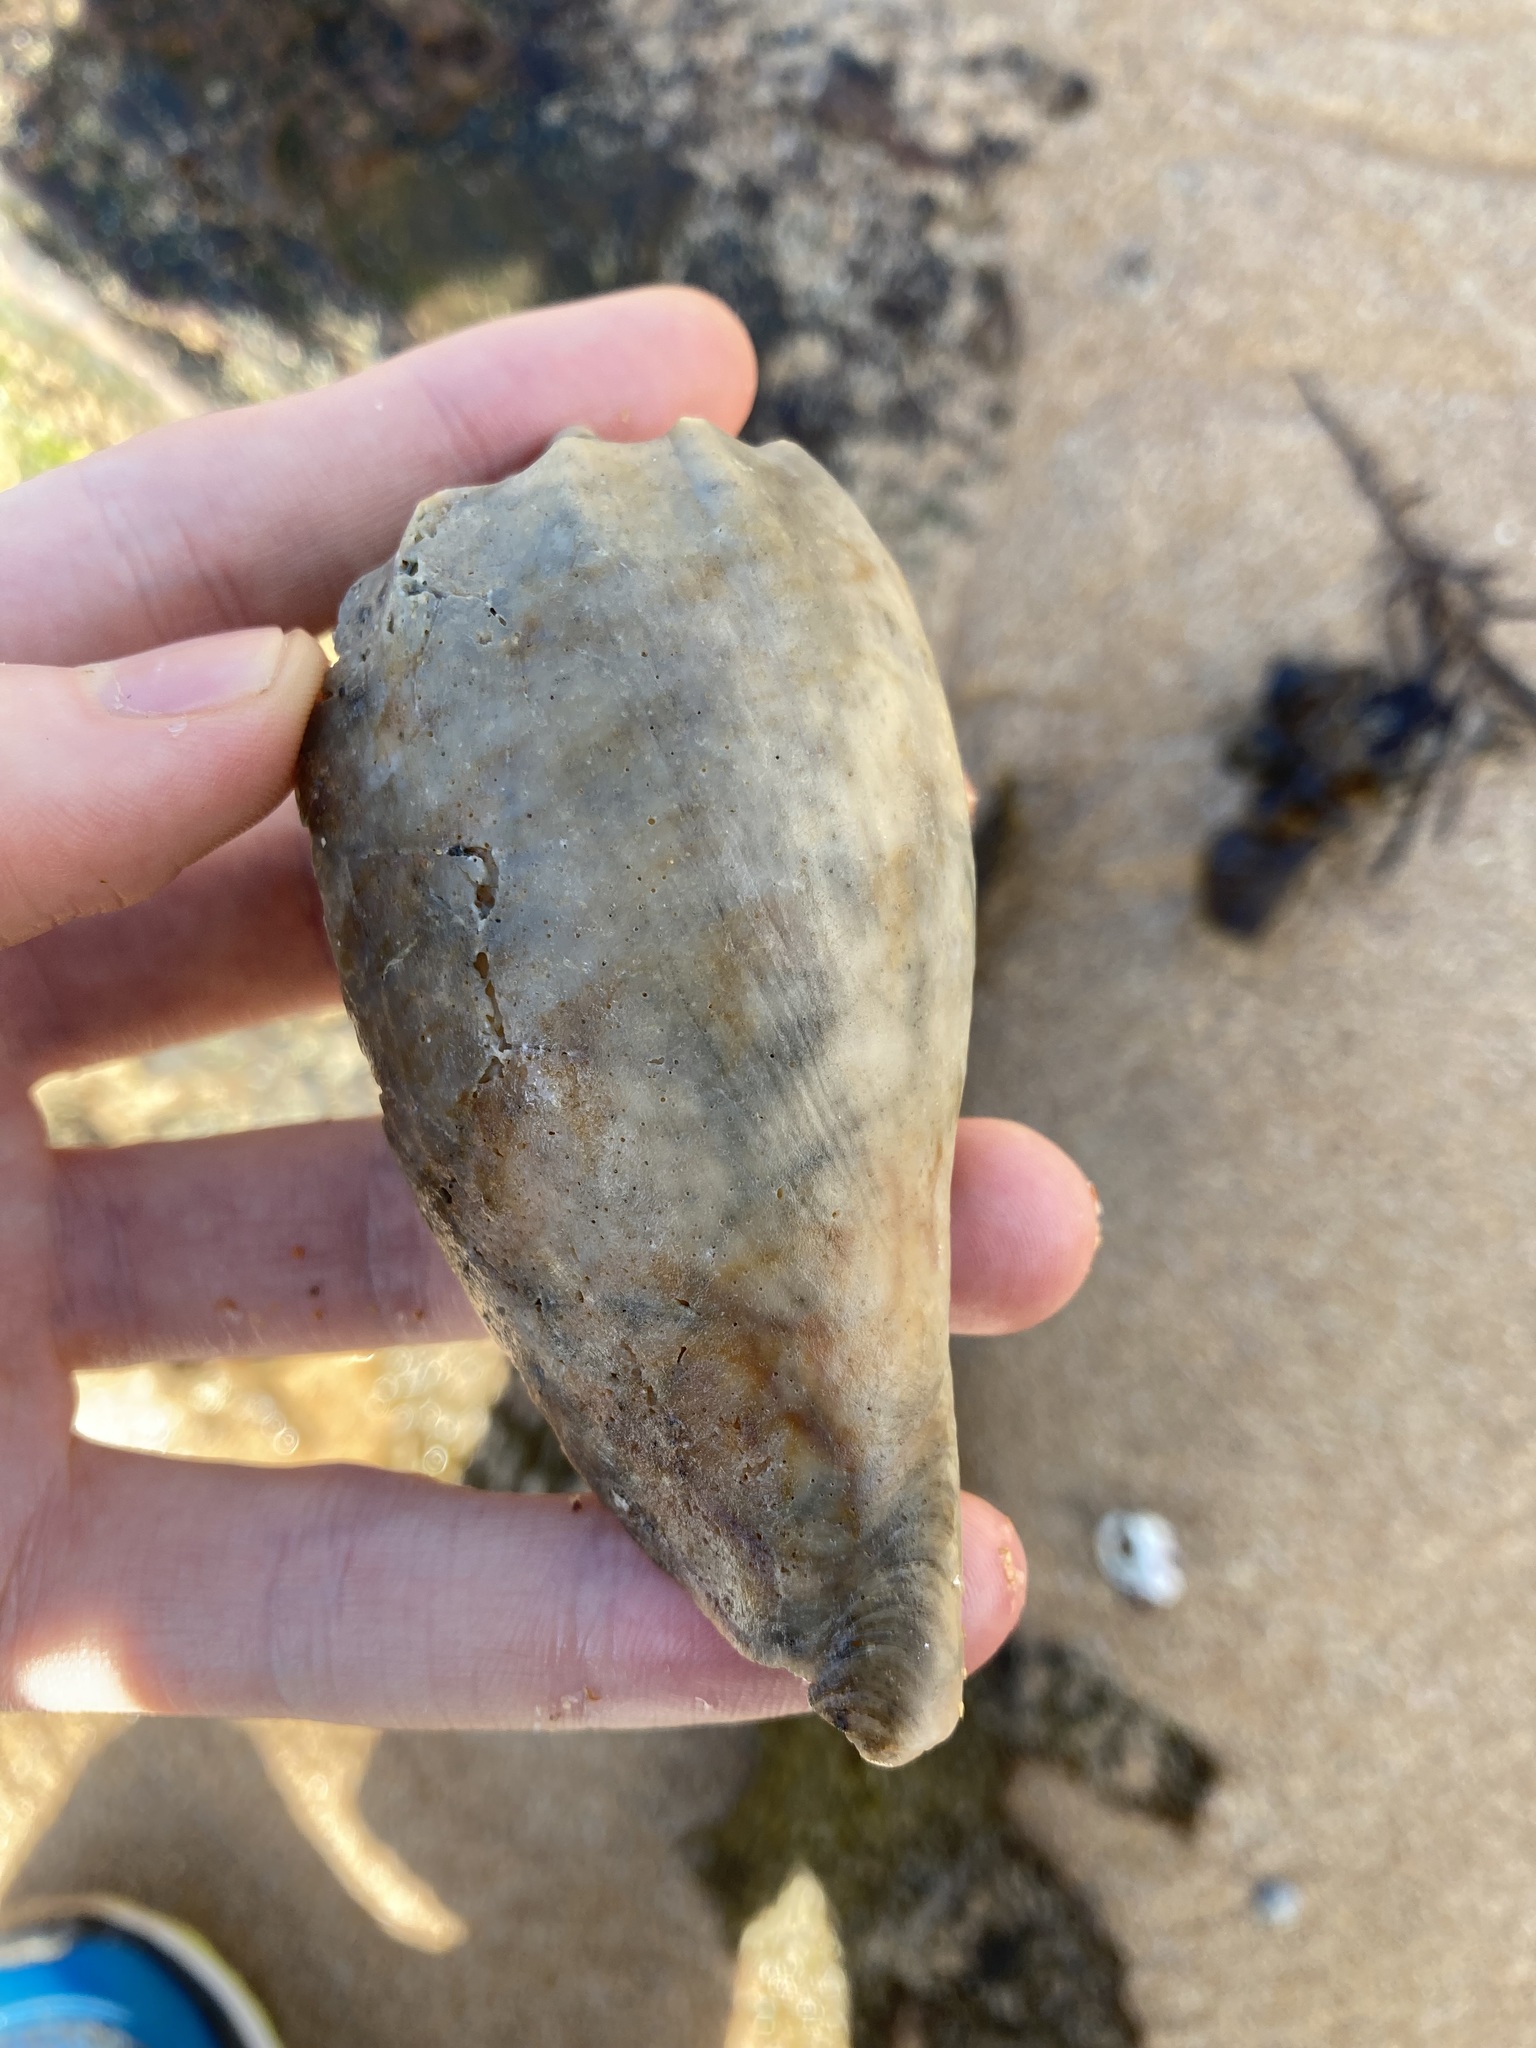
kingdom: Animalia
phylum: Mollusca
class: Gastropoda
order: Neogastropoda
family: Volutidae
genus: Amoria
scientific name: Amoria hunteri
